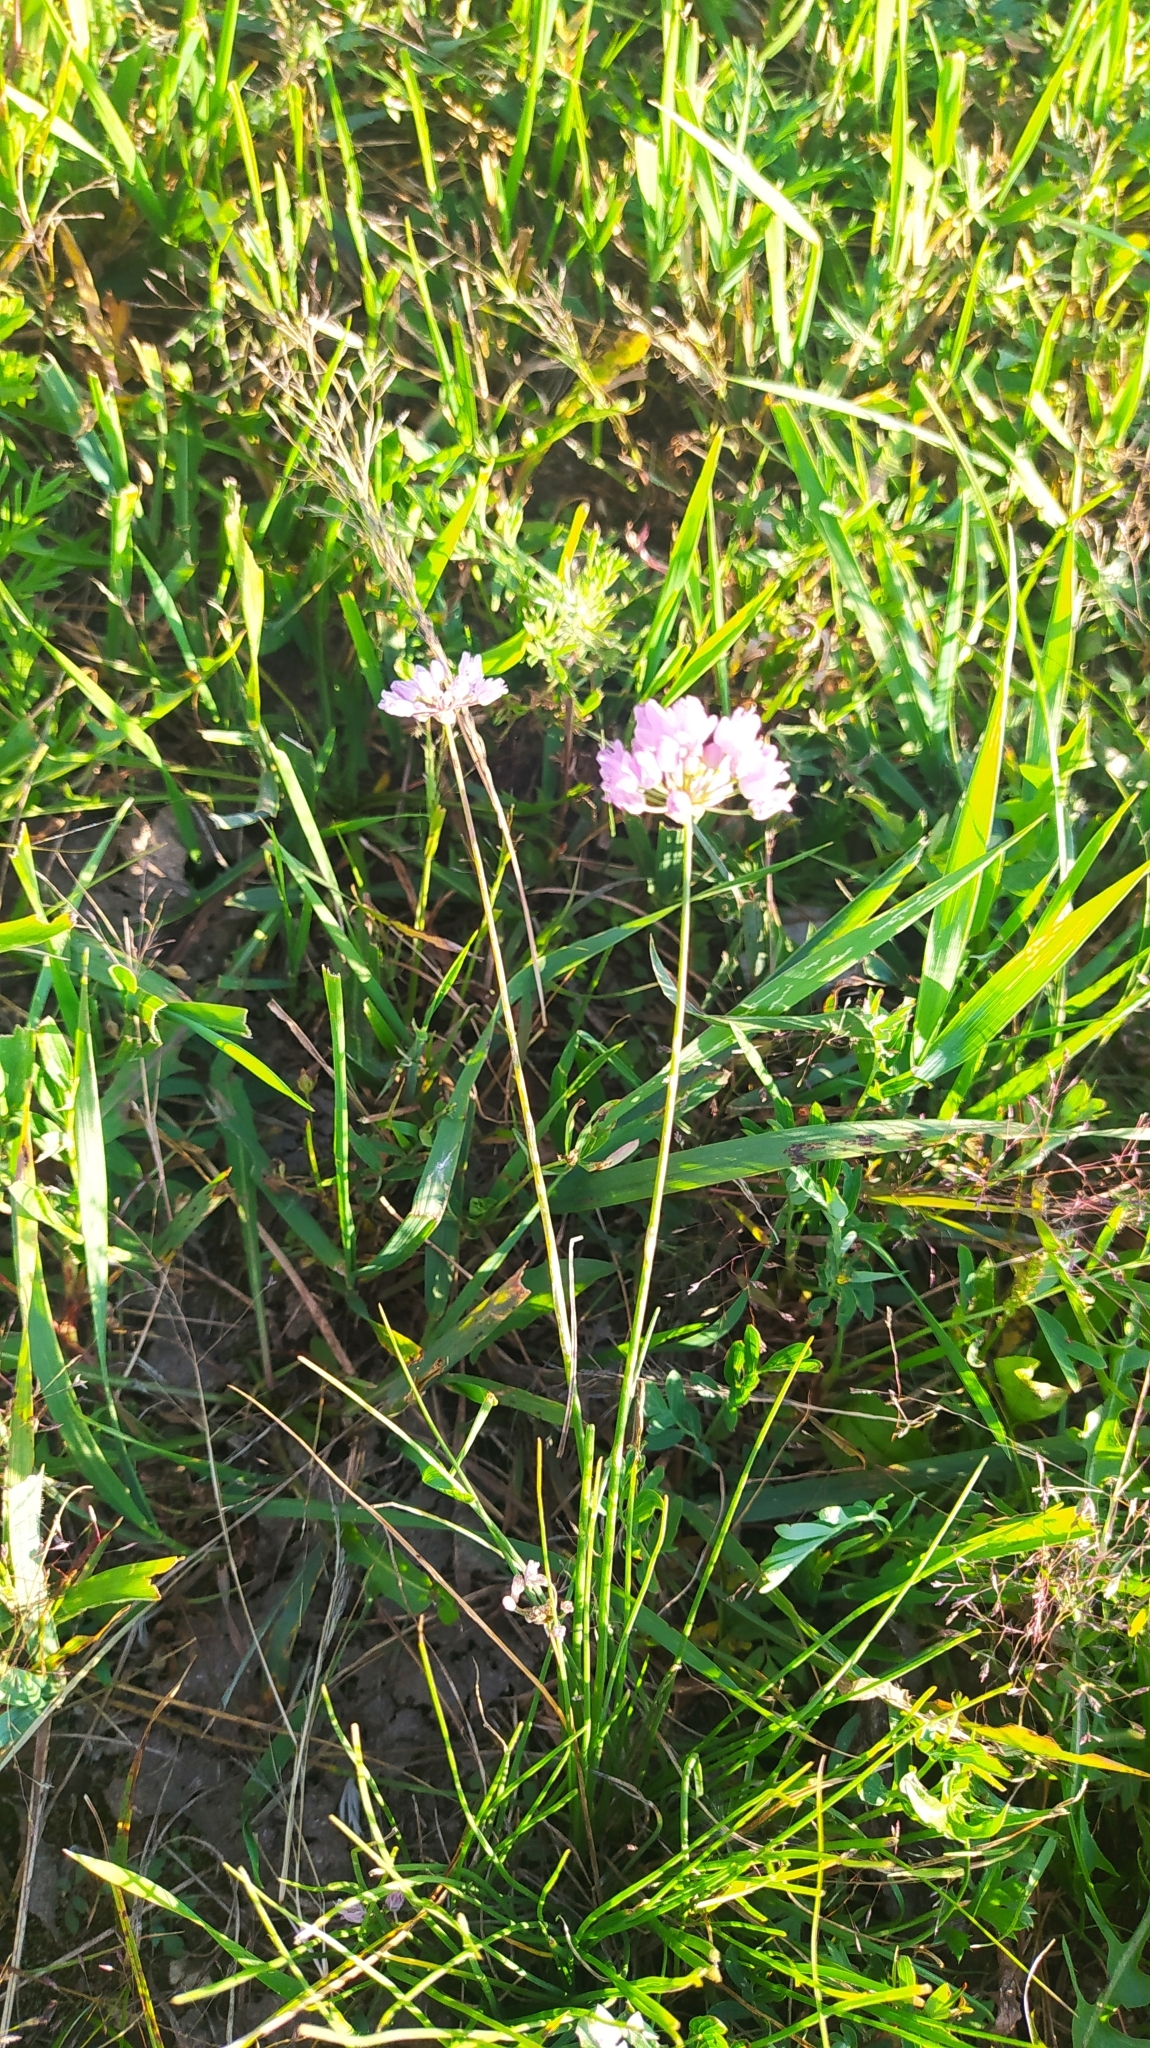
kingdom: Plantae
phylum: Tracheophyta
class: Liliopsida
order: Asparagales
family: Amaryllidaceae
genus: Allium
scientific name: Allium bidentatum
